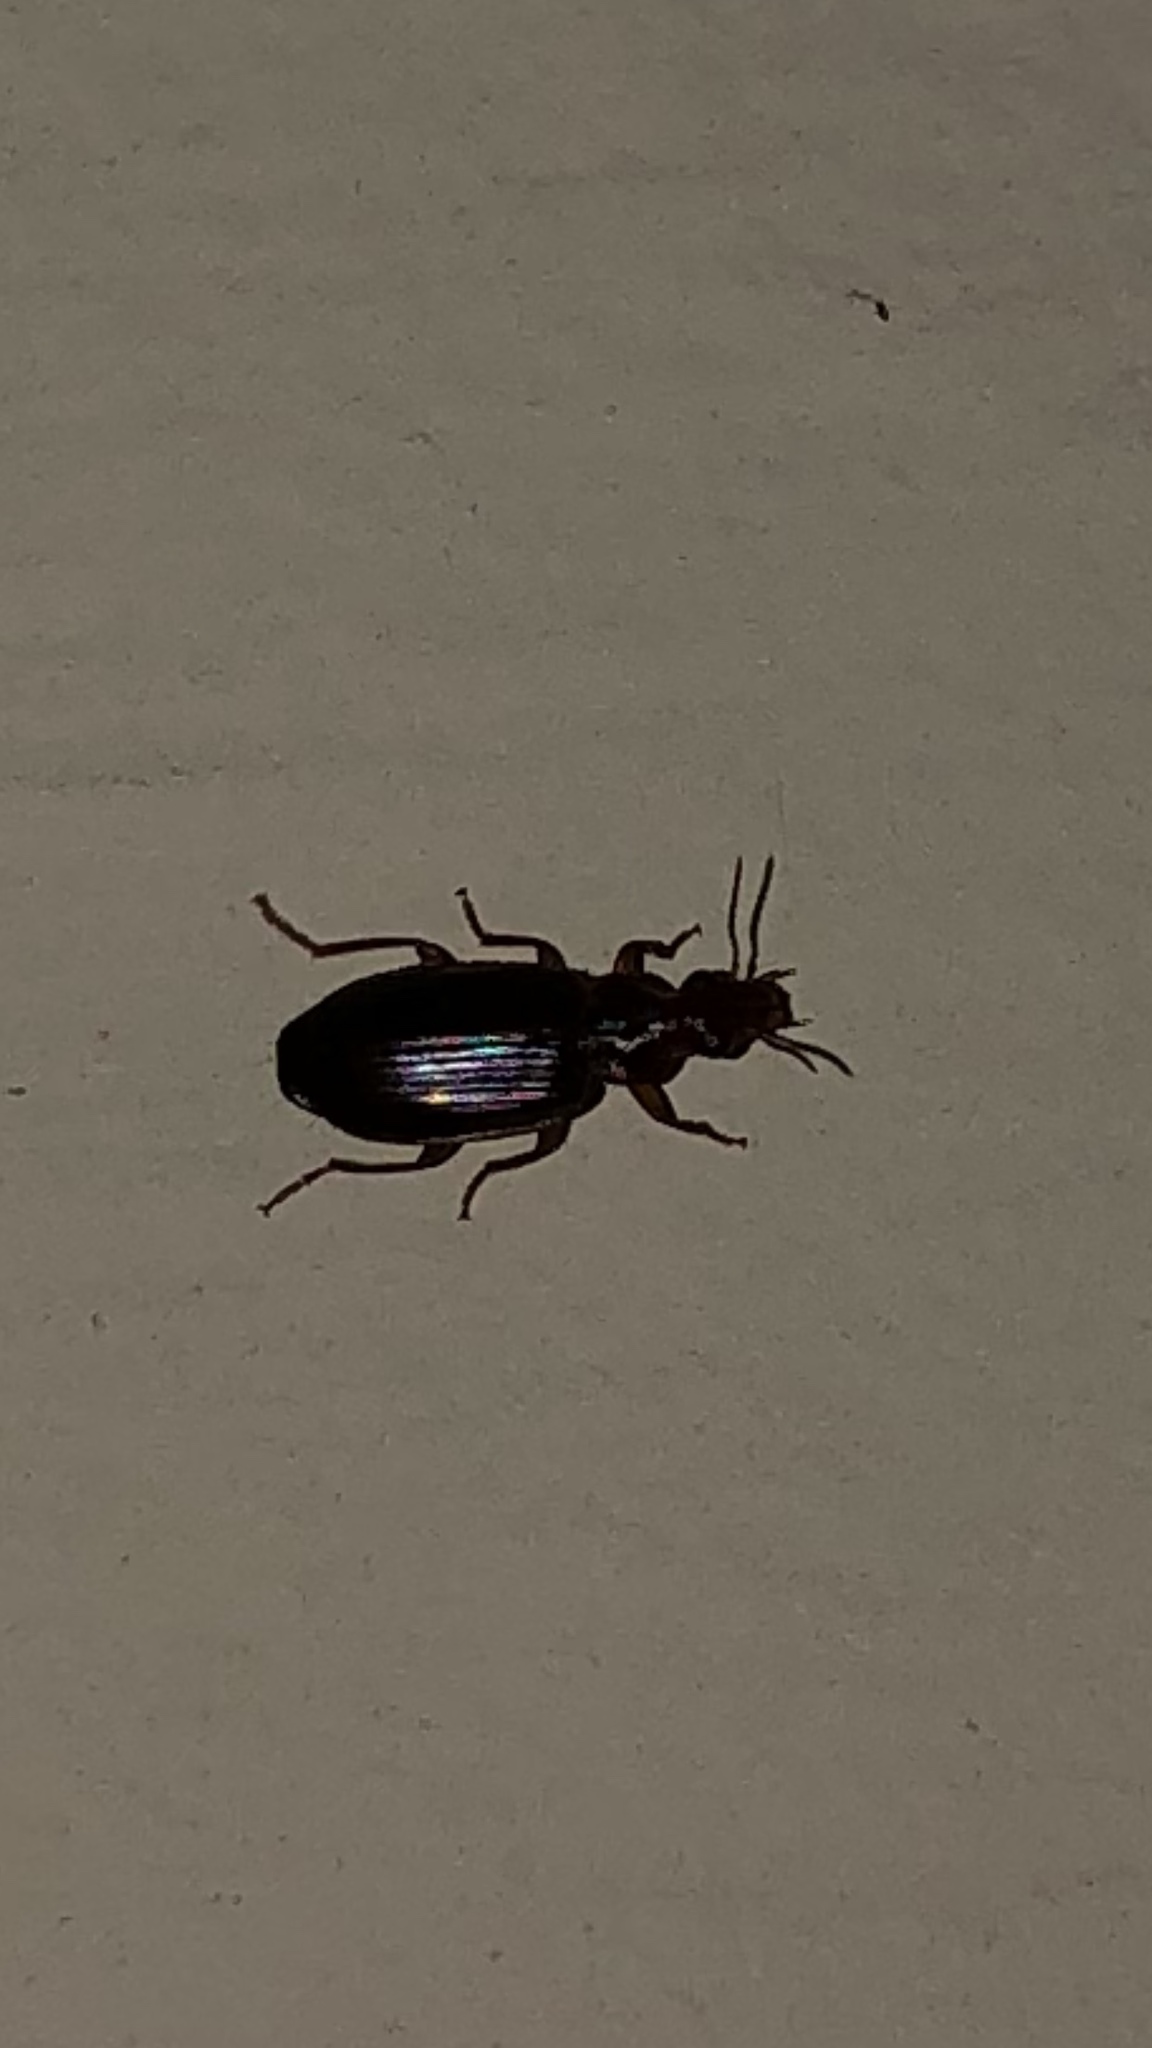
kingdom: Animalia
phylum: Arthropoda
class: Insecta
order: Coleoptera
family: Carabidae
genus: Plochionus
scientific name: Plochionus timidus
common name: Timid harp ground beetle
